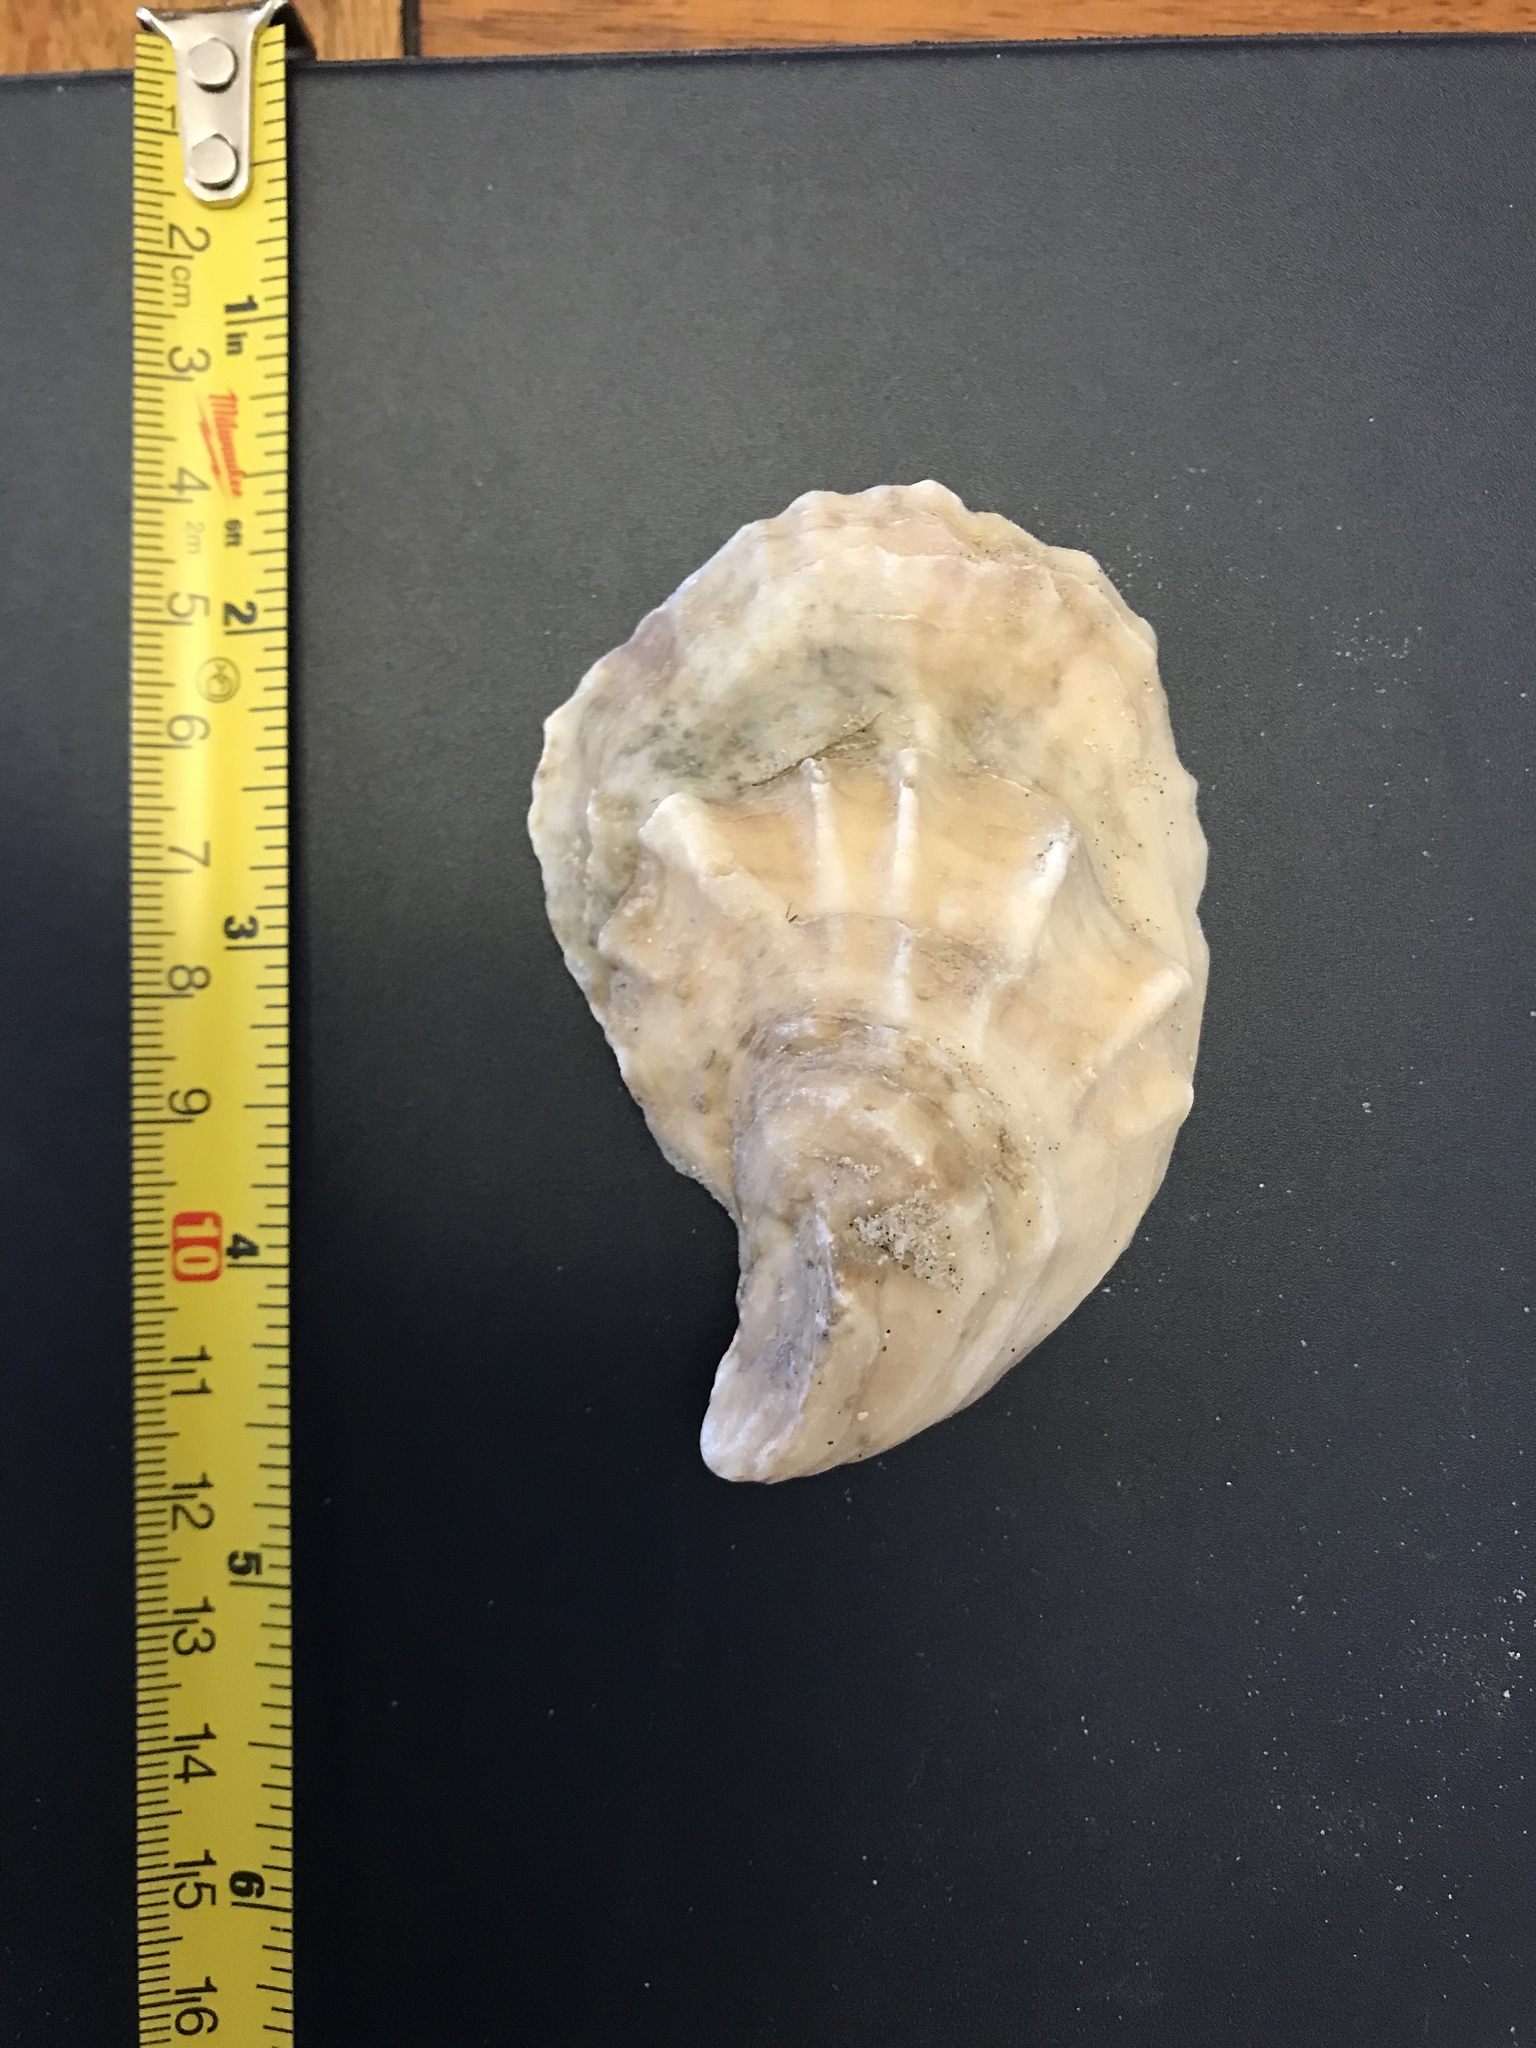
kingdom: Animalia
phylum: Mollusca
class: Bivalvia
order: Ostreida
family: Ostreidae
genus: Crassostrea
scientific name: Crassostrea virginica
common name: American oyster
